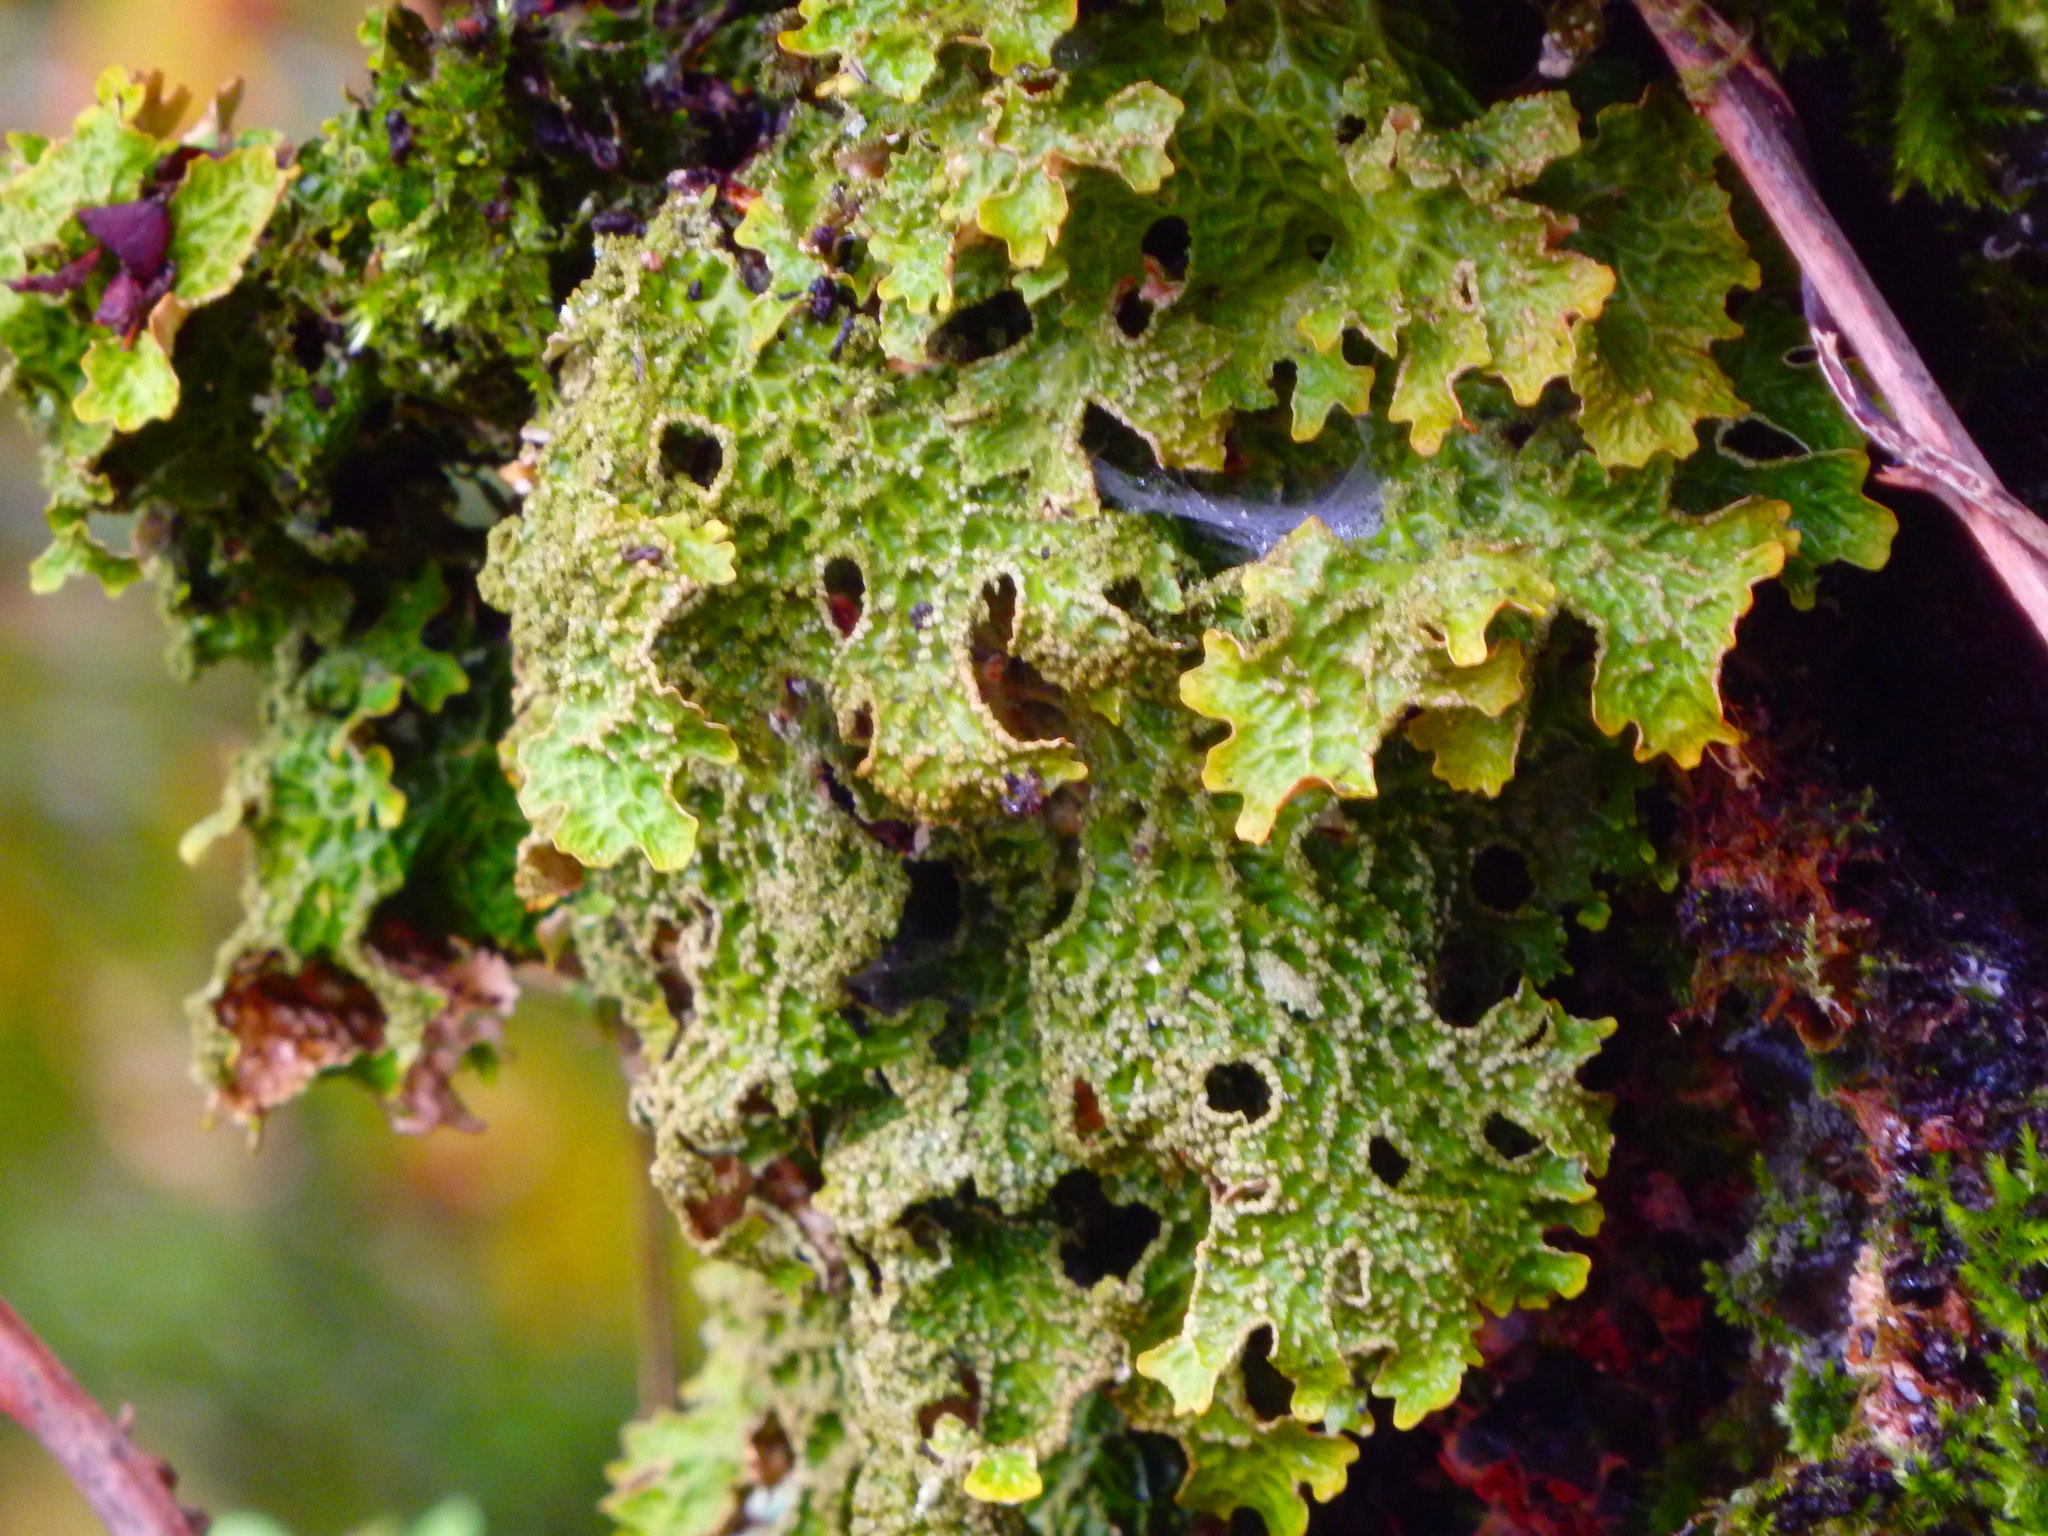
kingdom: Fungi
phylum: Ascomycota
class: Lecanoromycetes
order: Peltigerales
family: Lobariaceae
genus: Lobaria
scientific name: Lobaria pulmonaria
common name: Lungwort
